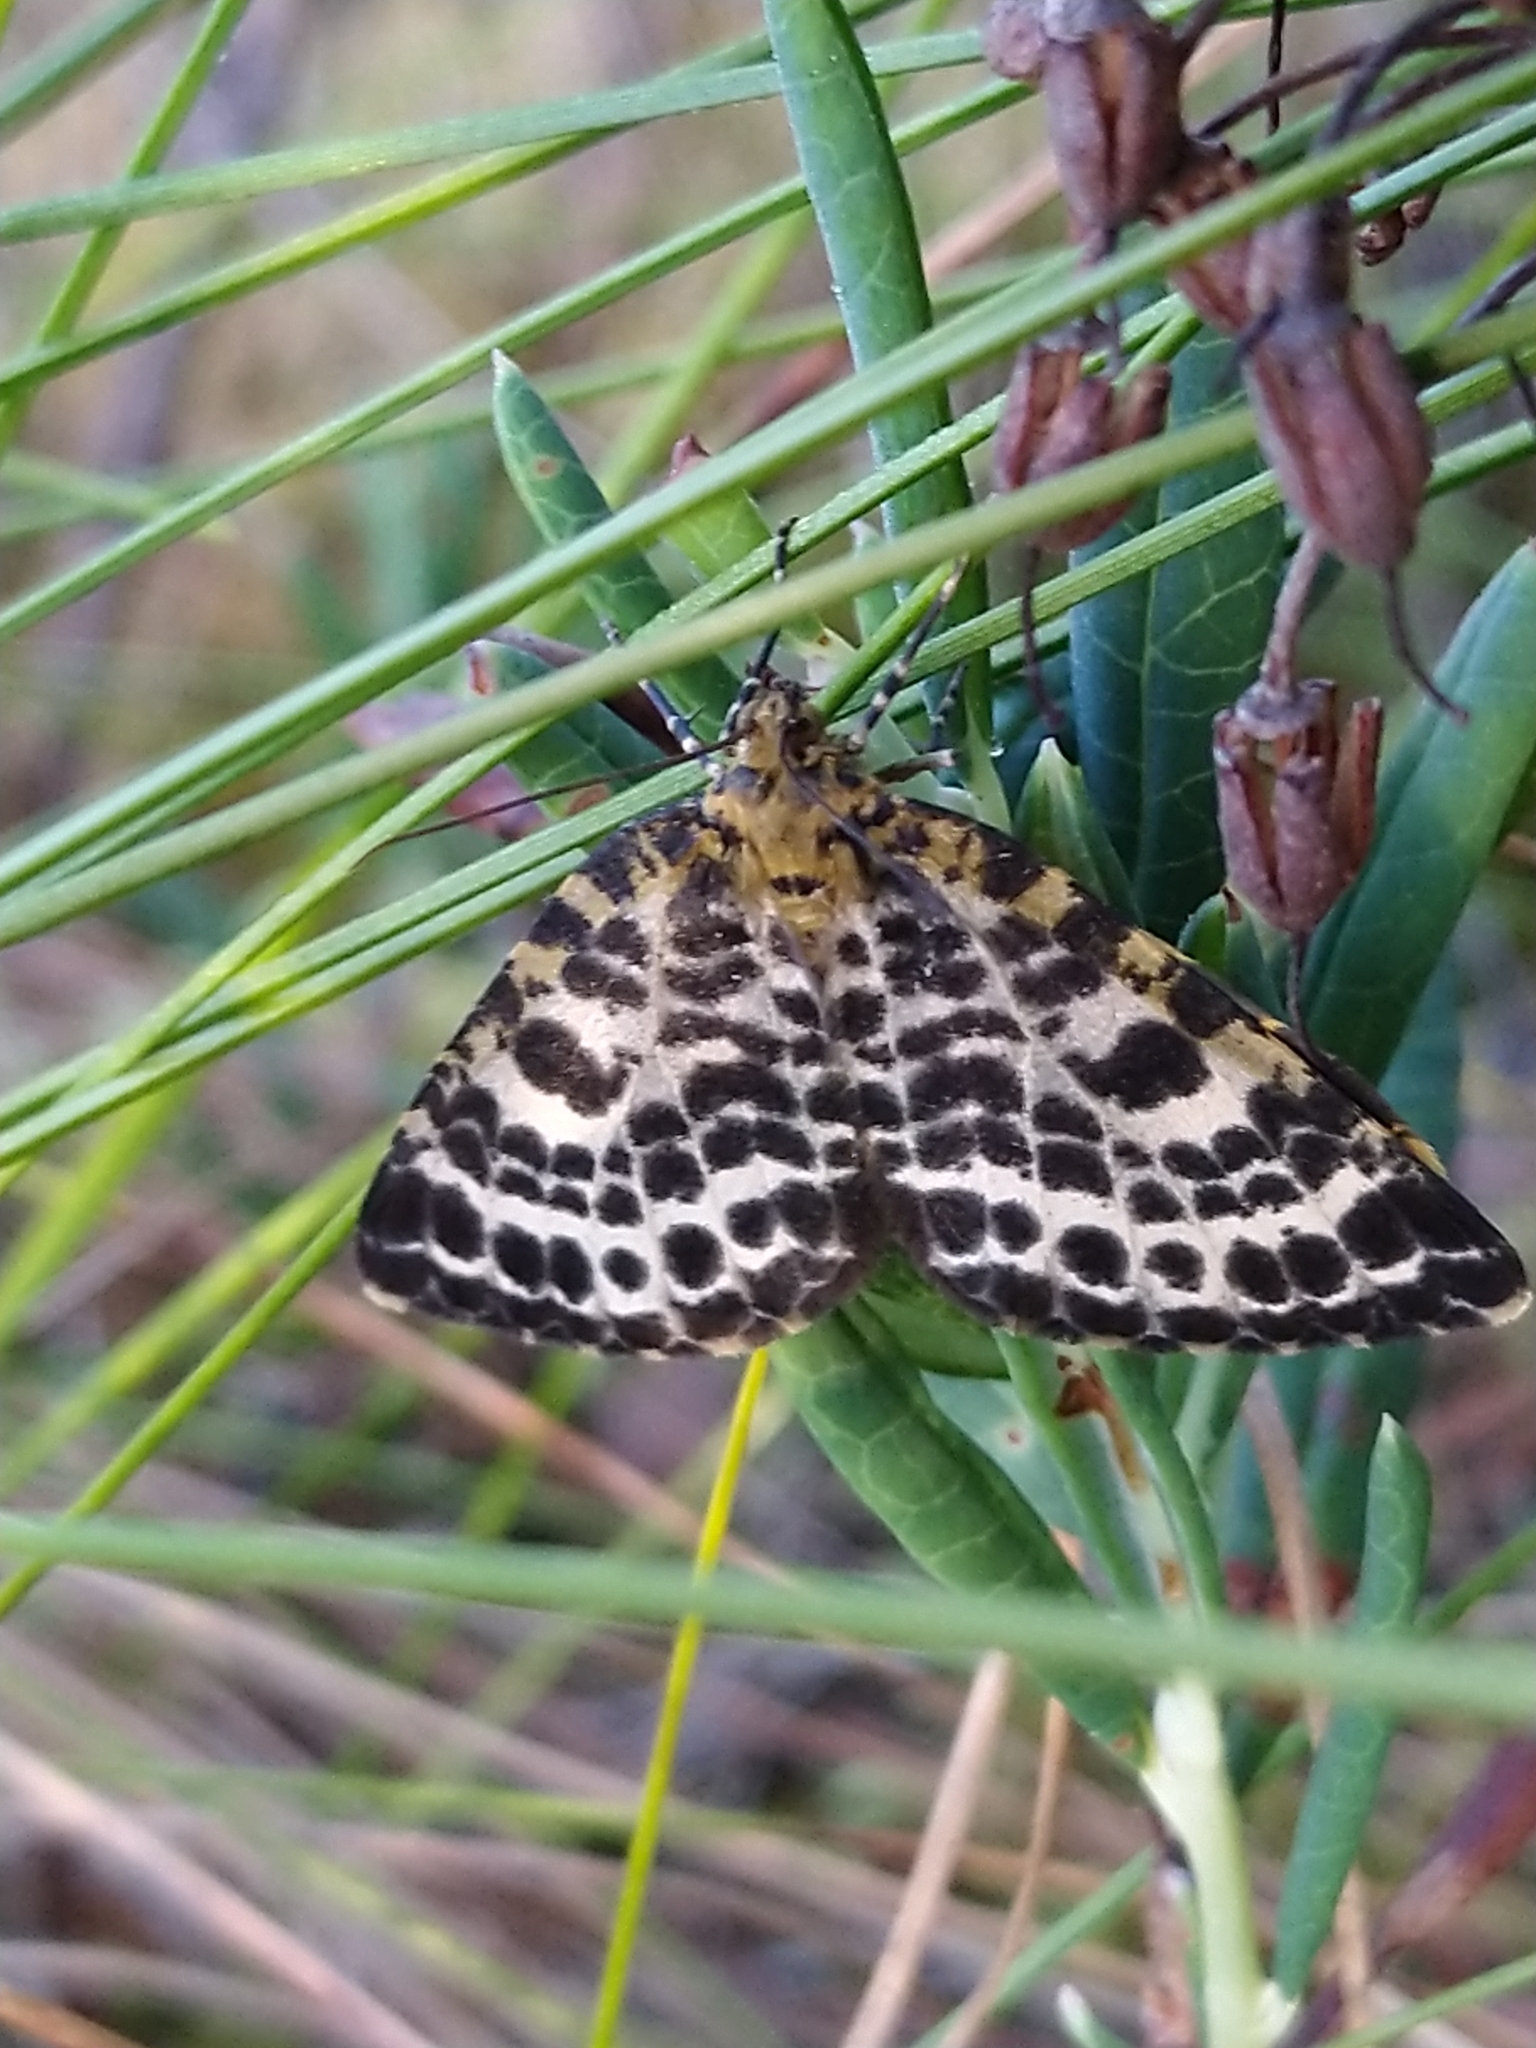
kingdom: Animalia
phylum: Arthropoda
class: Insecta
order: Lepidoptera
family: Geometridae
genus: Arichanna
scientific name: Arichanna melanaria
